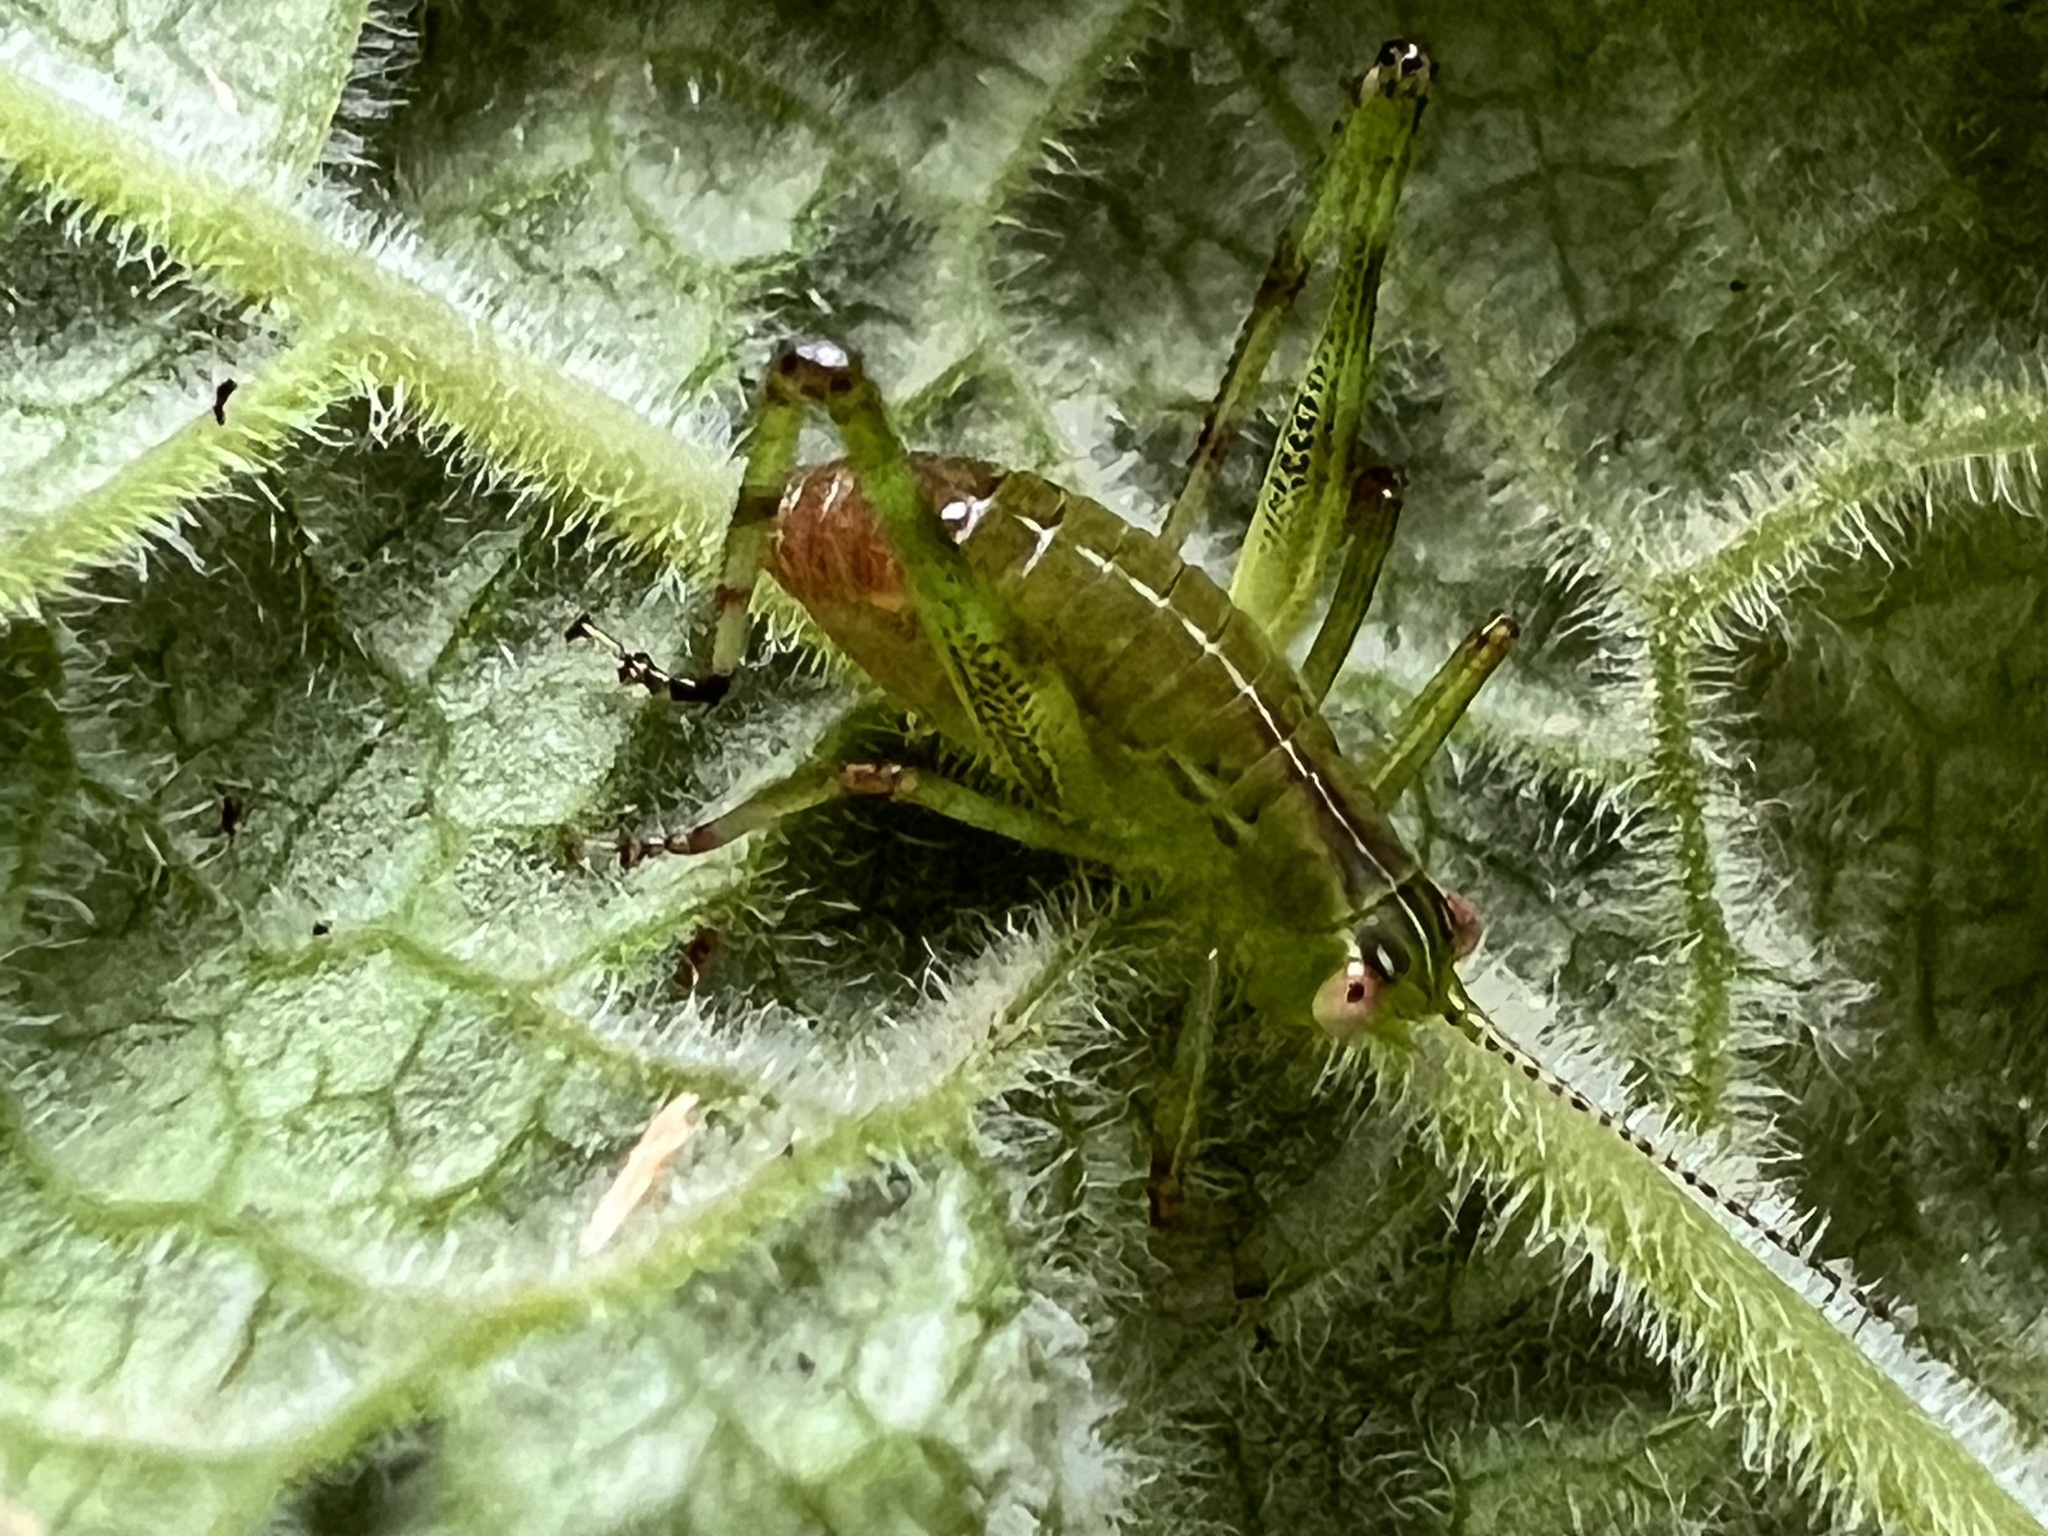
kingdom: Animalia
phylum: Arthropoda
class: Insecta
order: Orthoptera
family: Tettigoniidae
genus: Caedicia
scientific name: Caedicia simplex
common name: Common garden katydid
